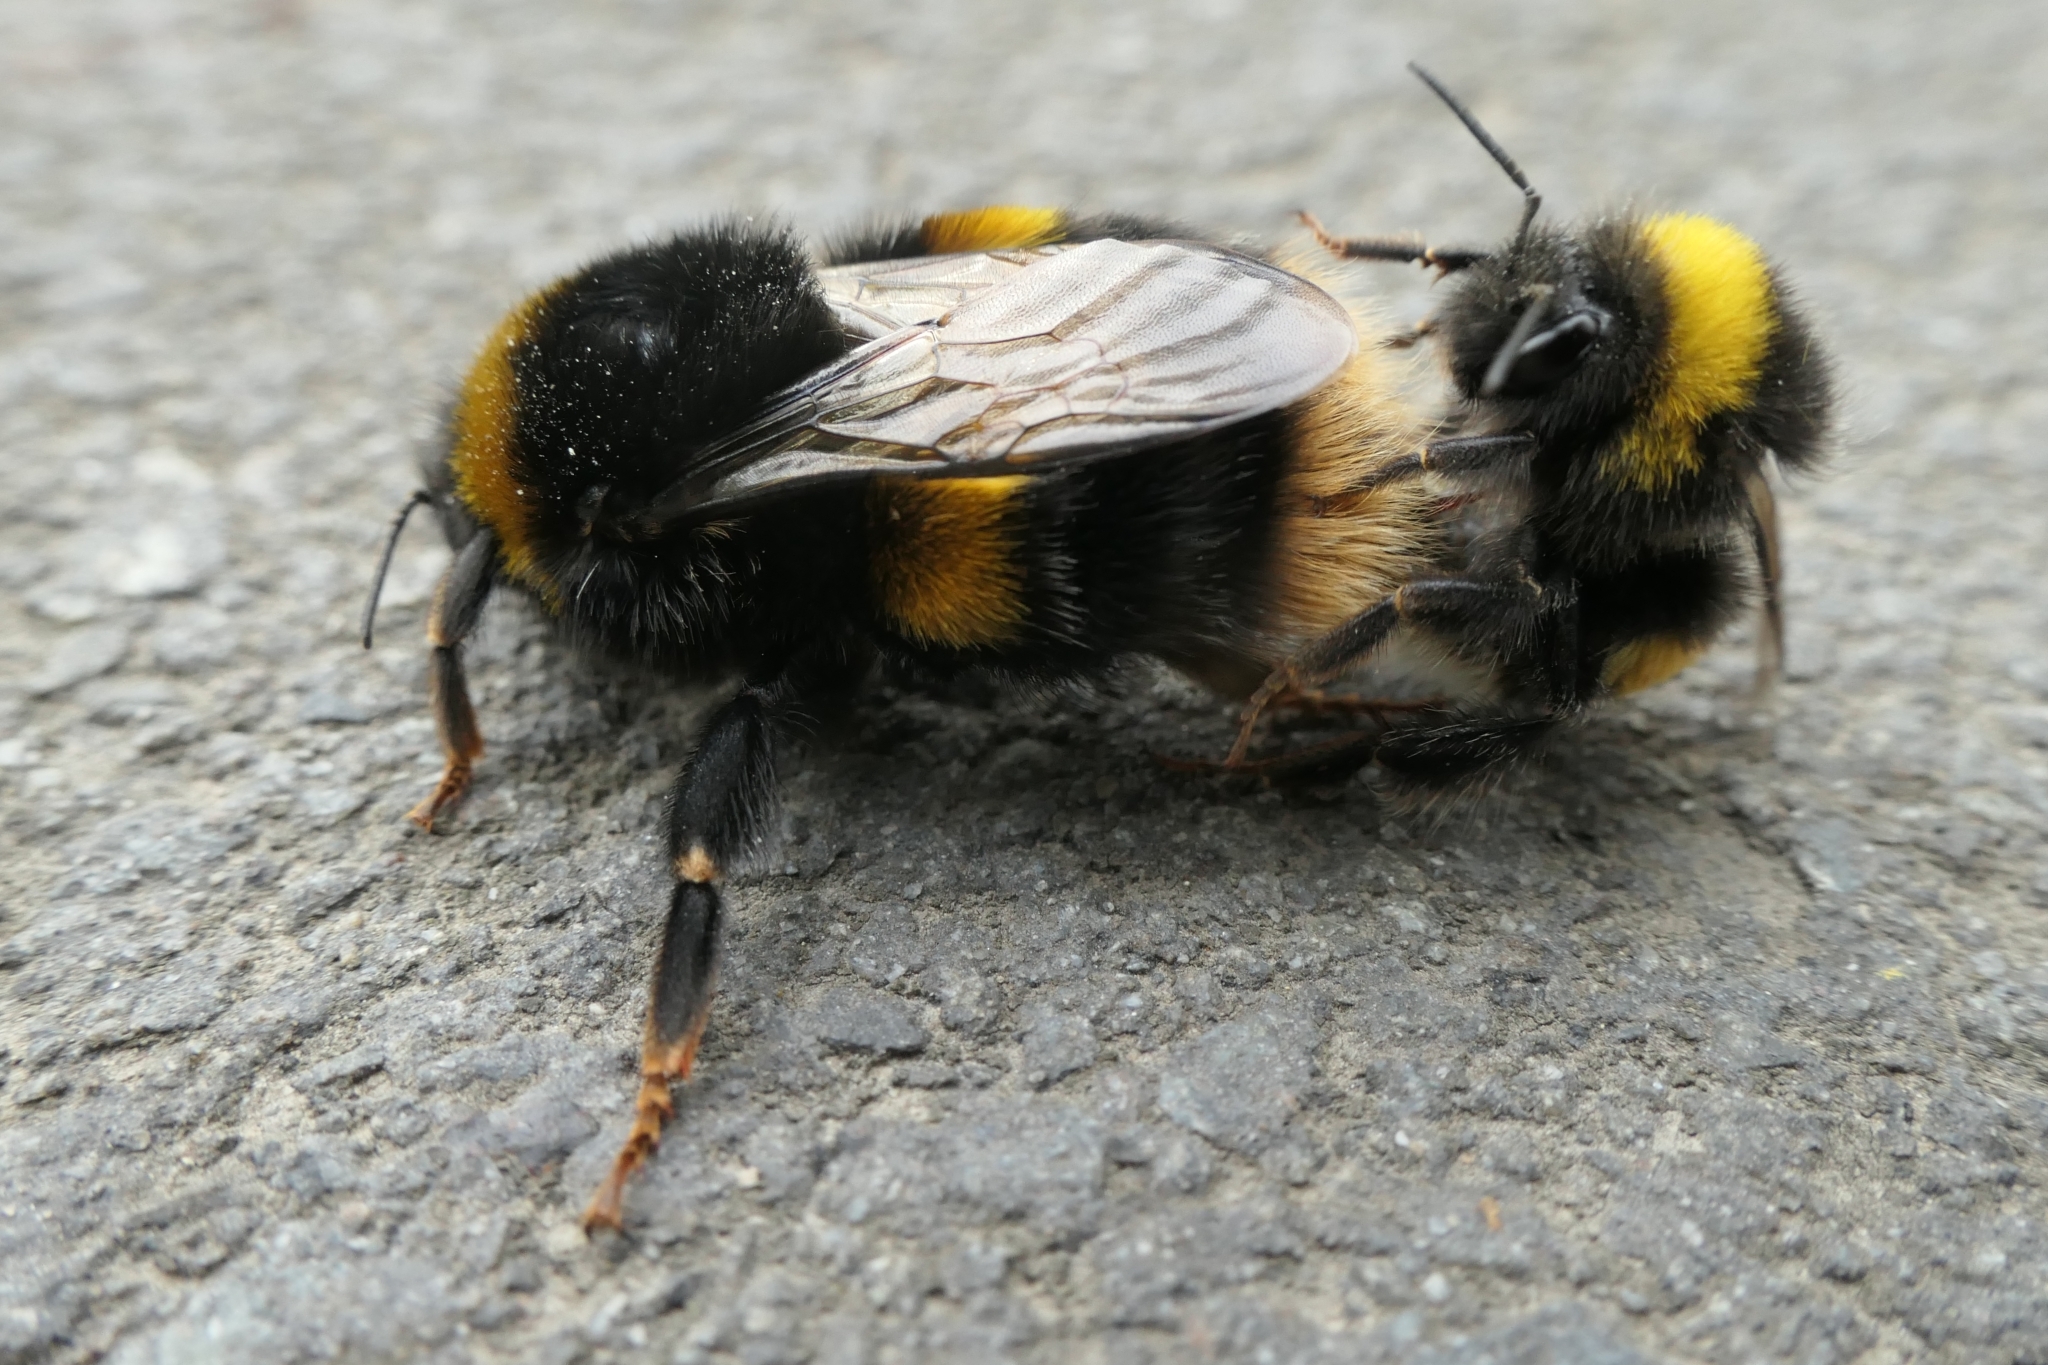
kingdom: Animalia
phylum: Arthropoda
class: Insecta
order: Hymenoptera
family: Apidae
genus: Bombus
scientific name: Bombus terrestris
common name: Buff-tailed bumblebee
